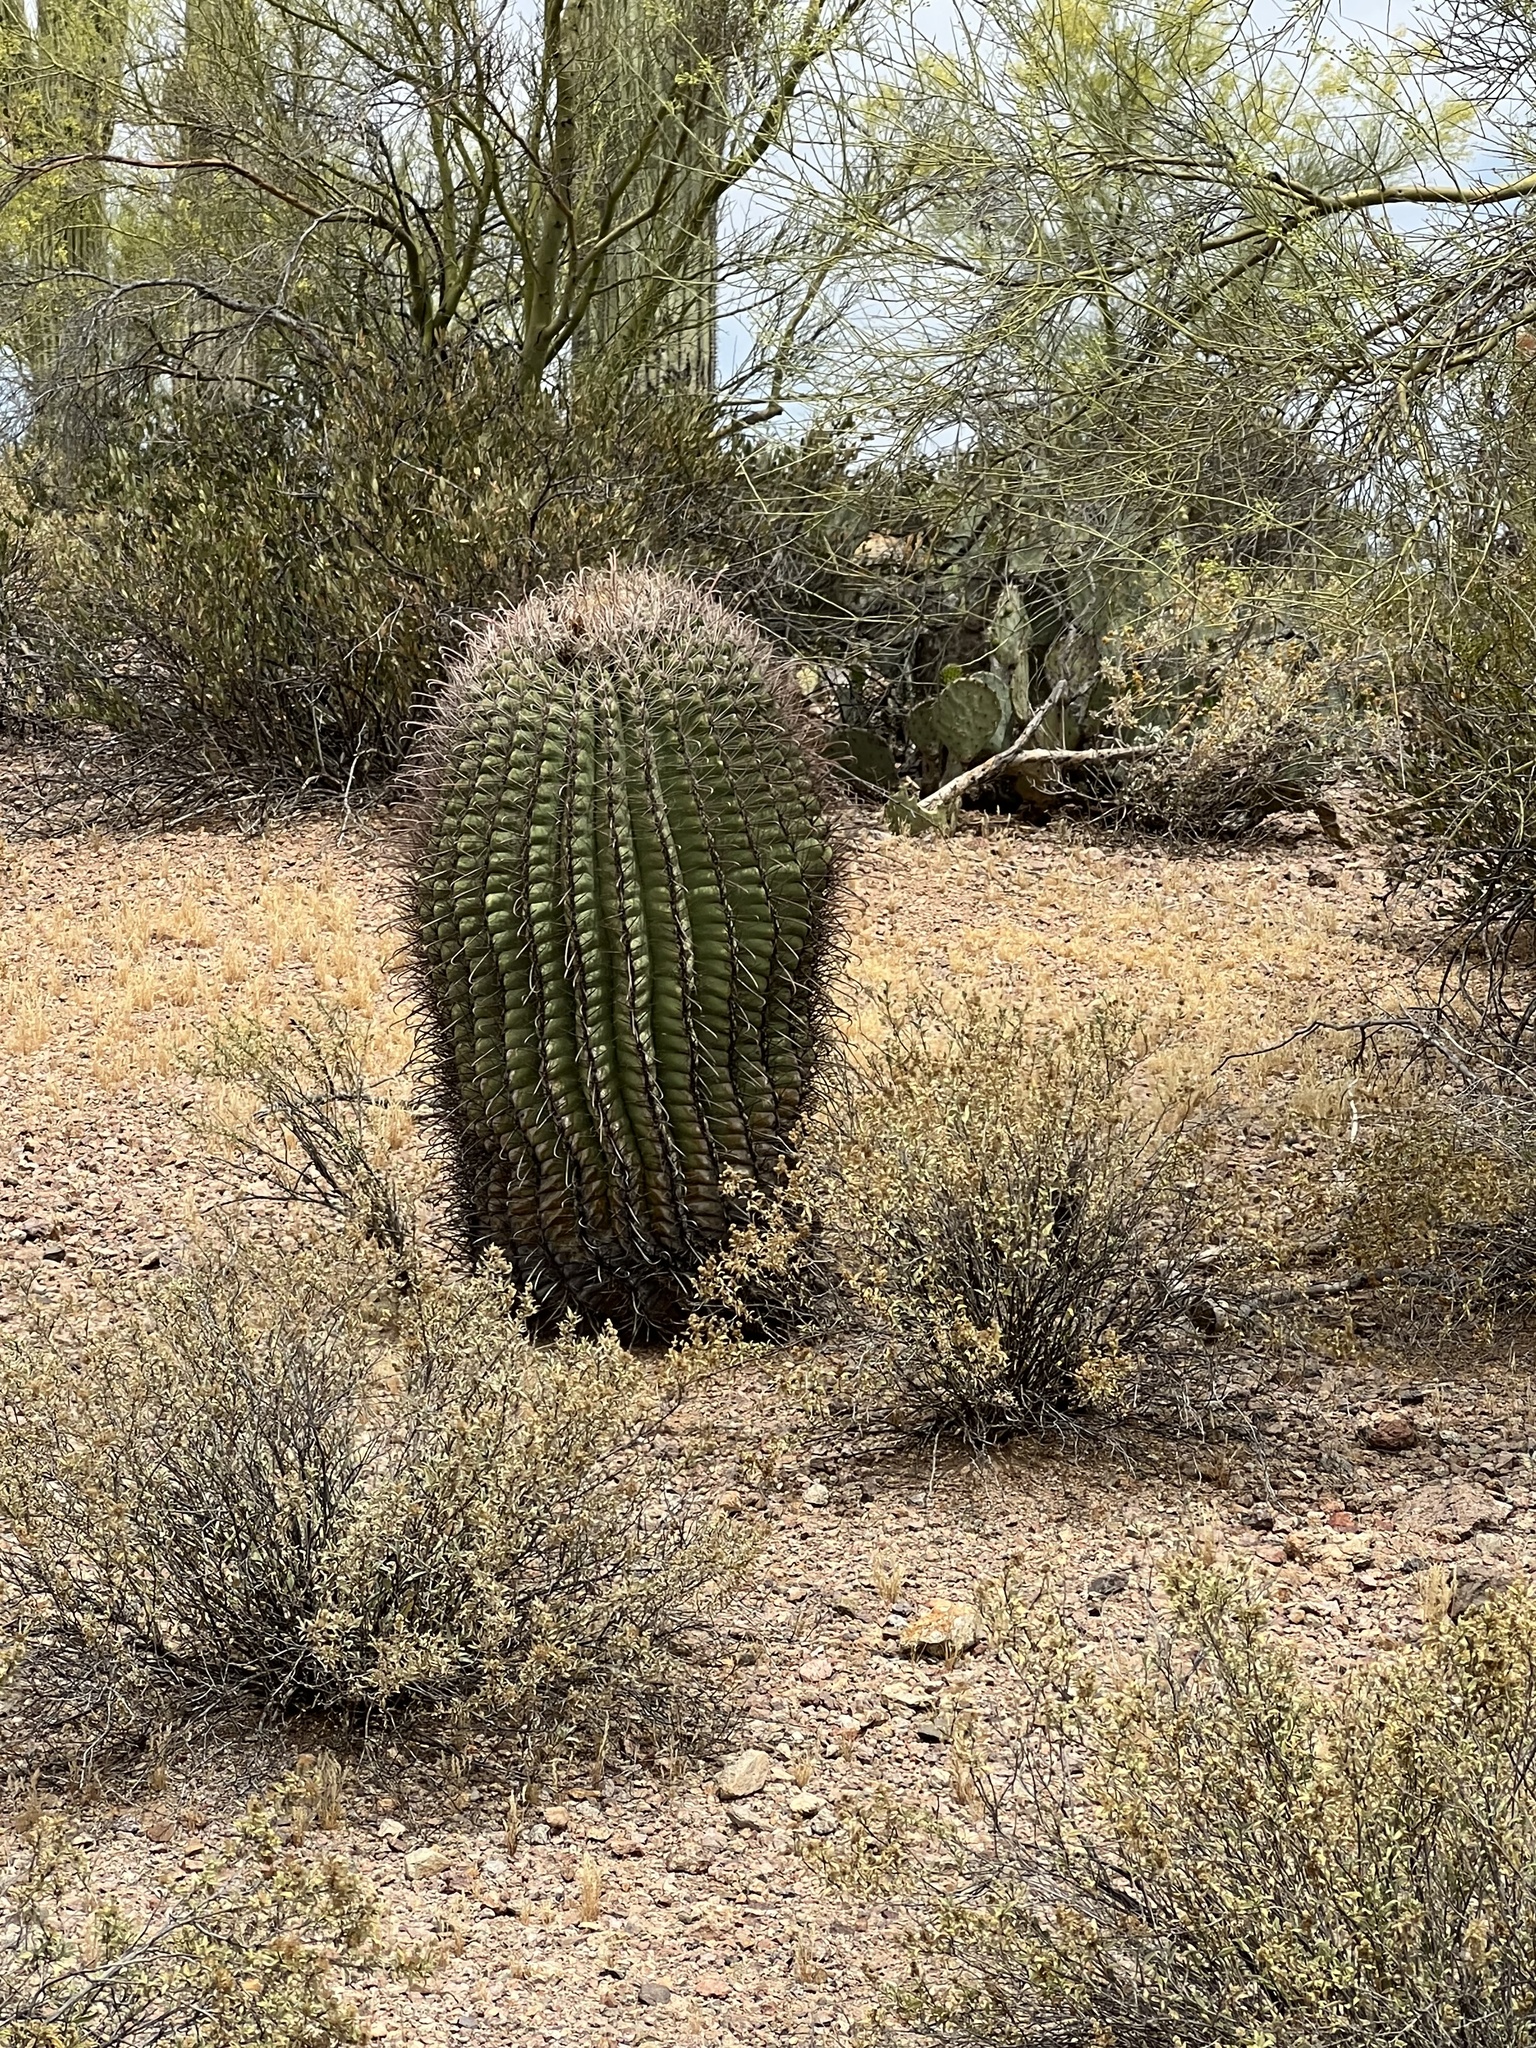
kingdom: Plantae
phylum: Tracheophyta
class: Magnoliopsida
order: Caryophyllales
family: Cactaceae
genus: Ferocactus
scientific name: Ferocactus wislizeni
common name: Candy barrel cactus
